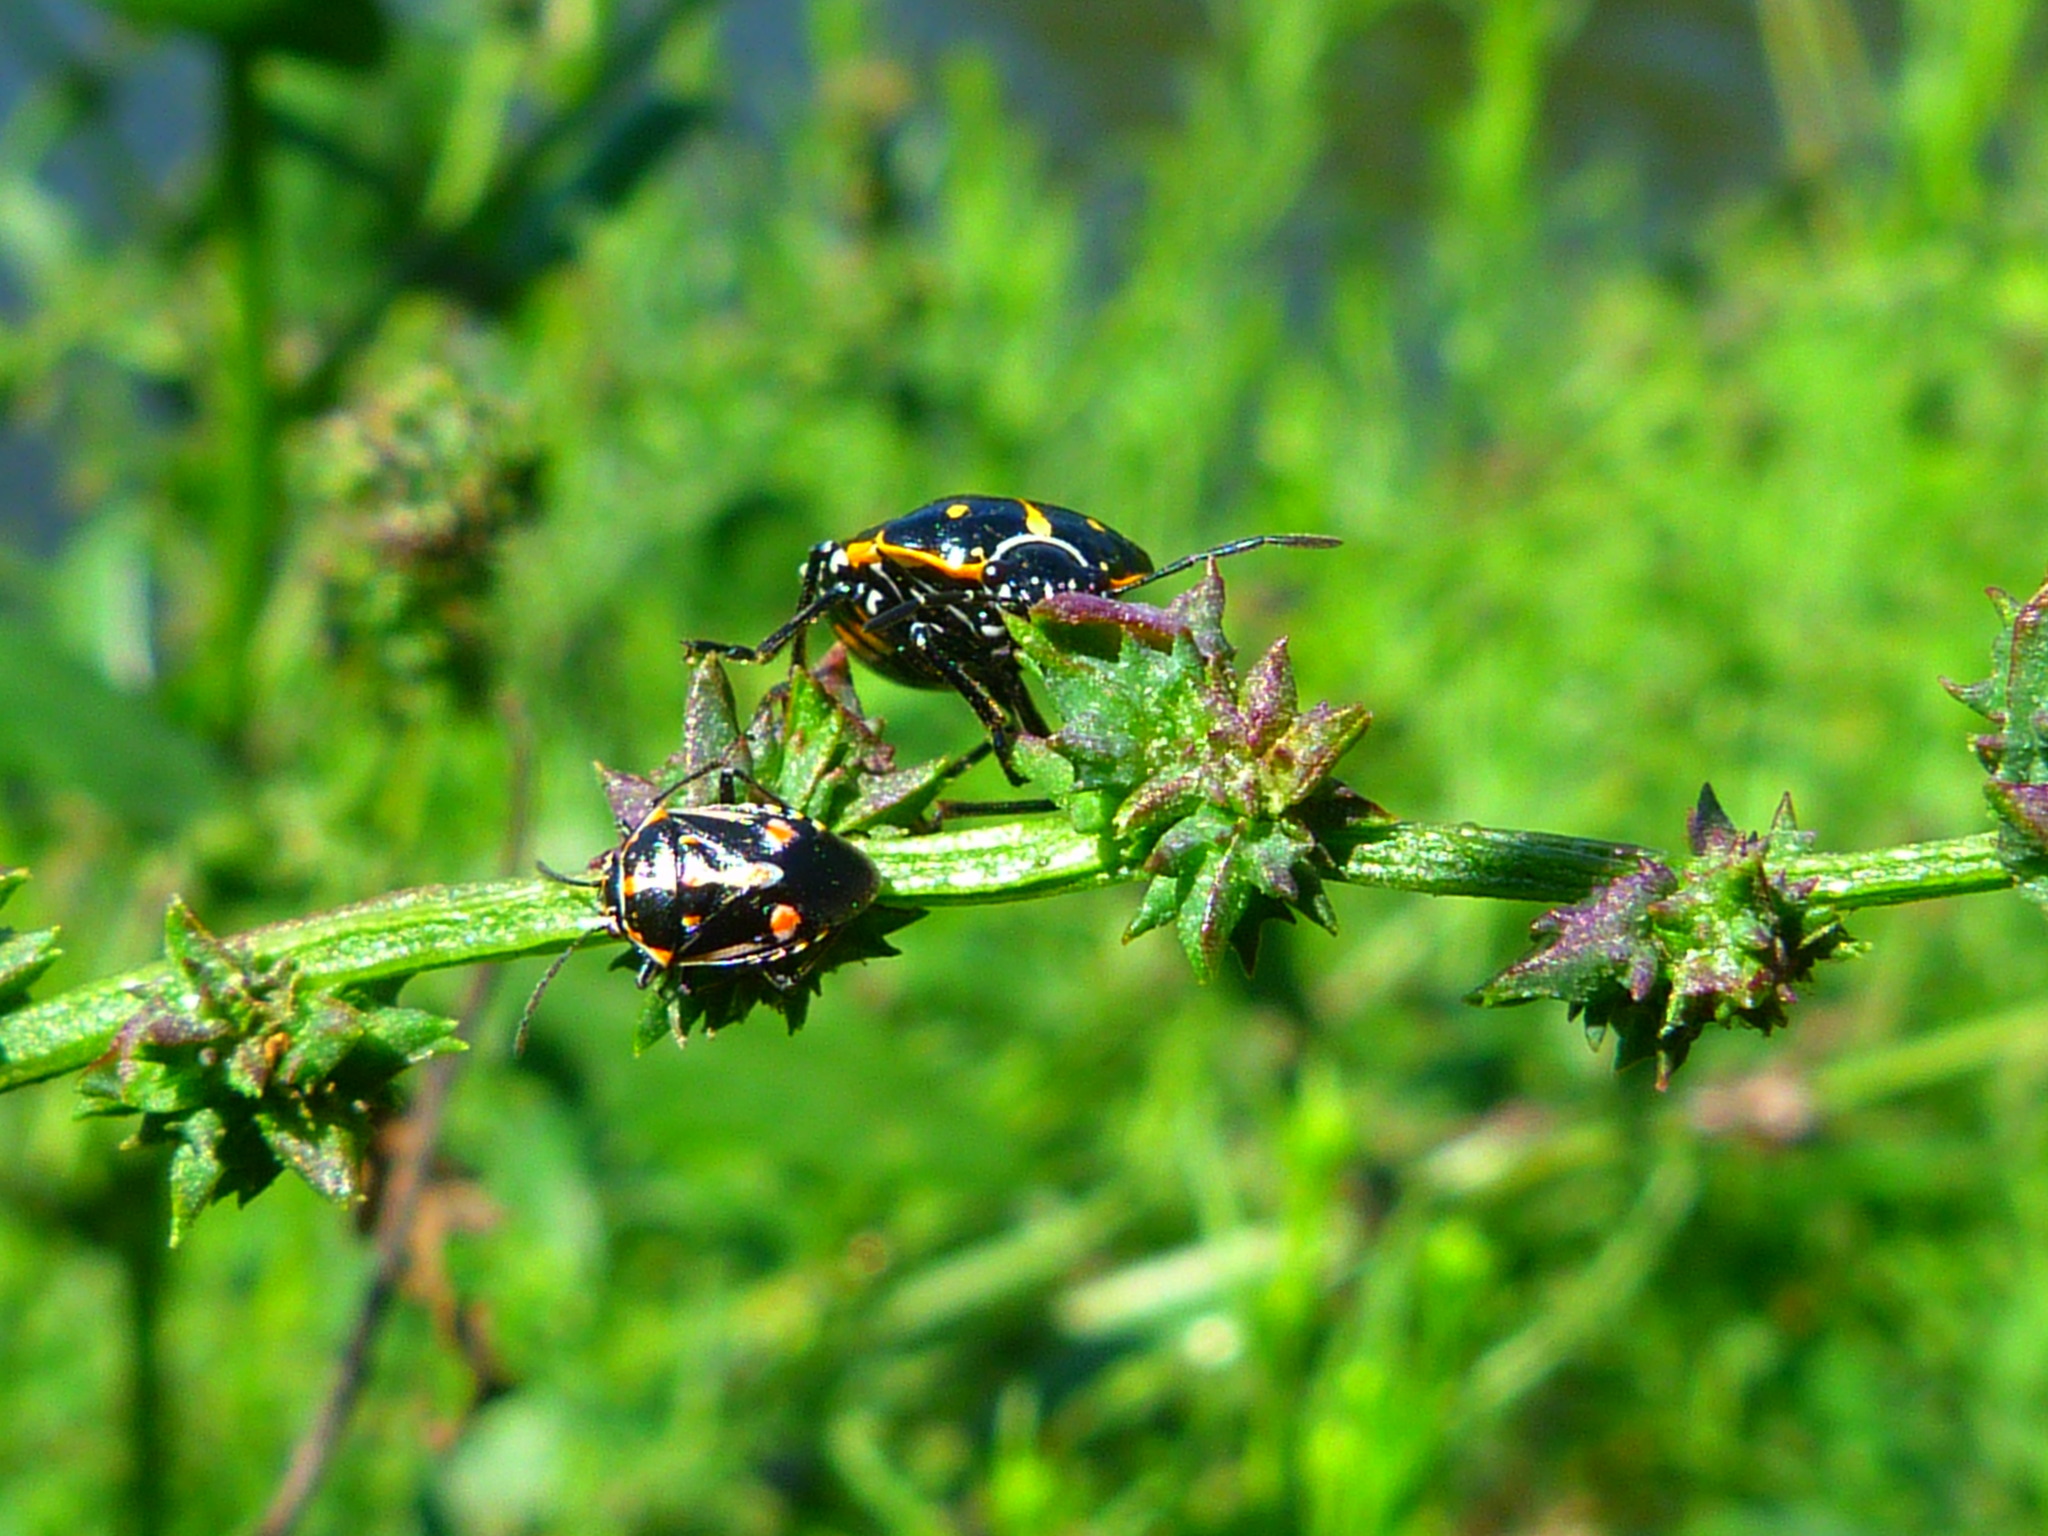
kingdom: Animalia
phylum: Arthropoda
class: Insecta
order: Hemiptera
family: Pentatomidae
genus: Bagrada
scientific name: Bagrada hilaris
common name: Bagrada bug
